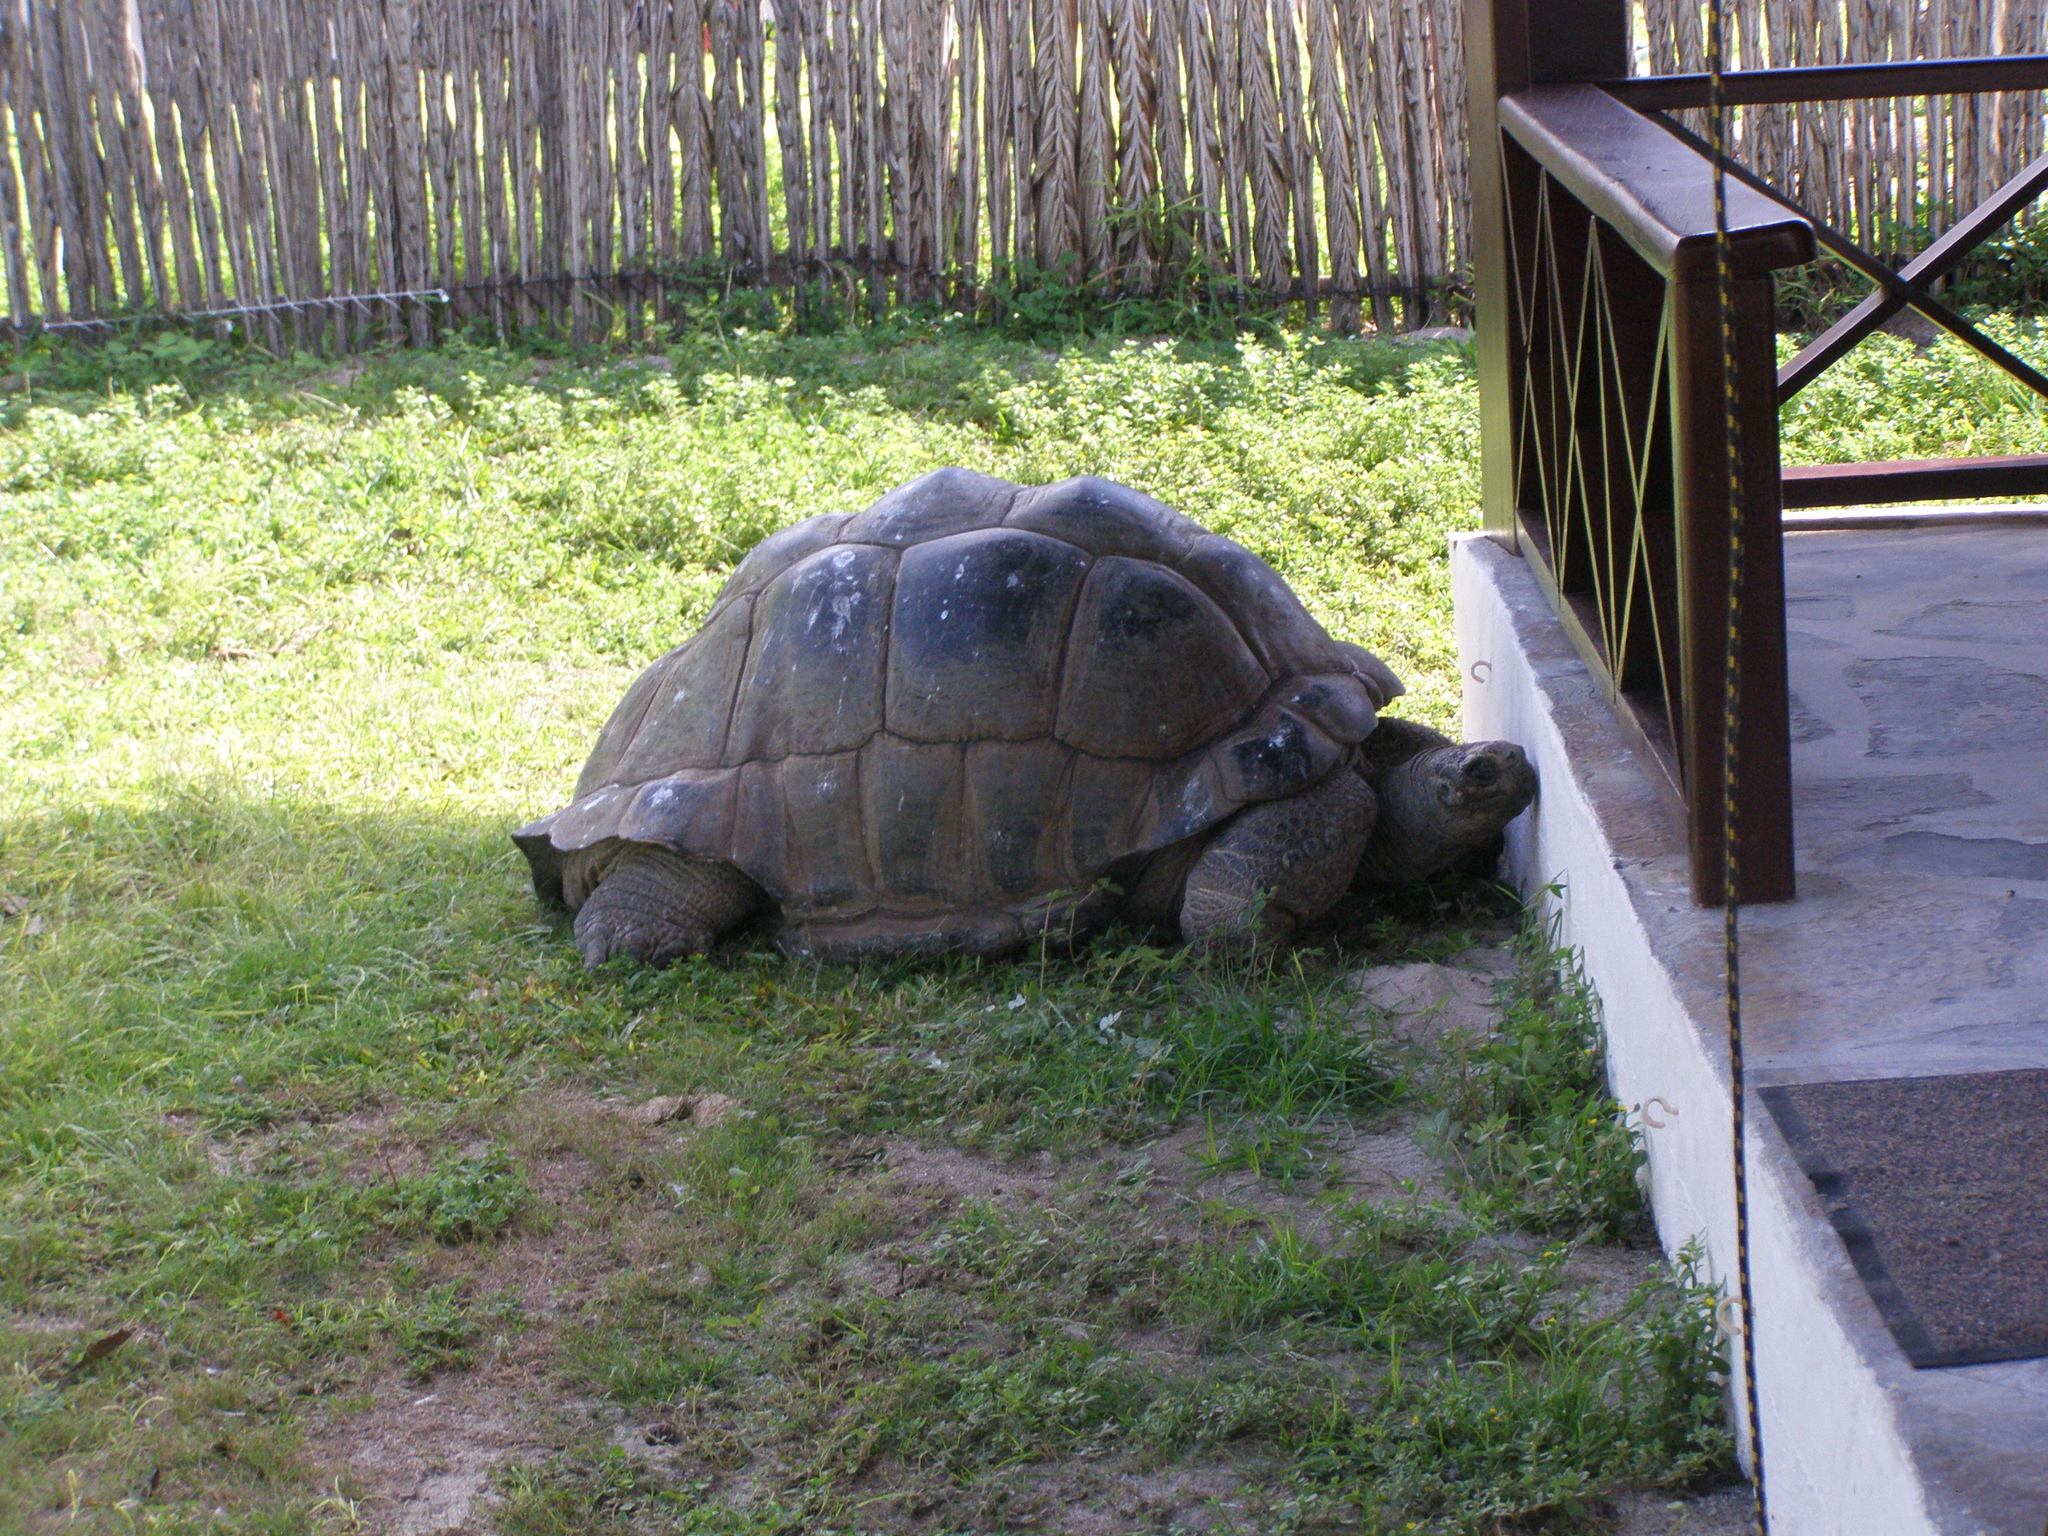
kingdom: Animalia
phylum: Chordata
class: Testudines
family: Testudinidae
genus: Aldabrachelys
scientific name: Aldabrachelys gigantea
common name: Aldabra giant tortoise
